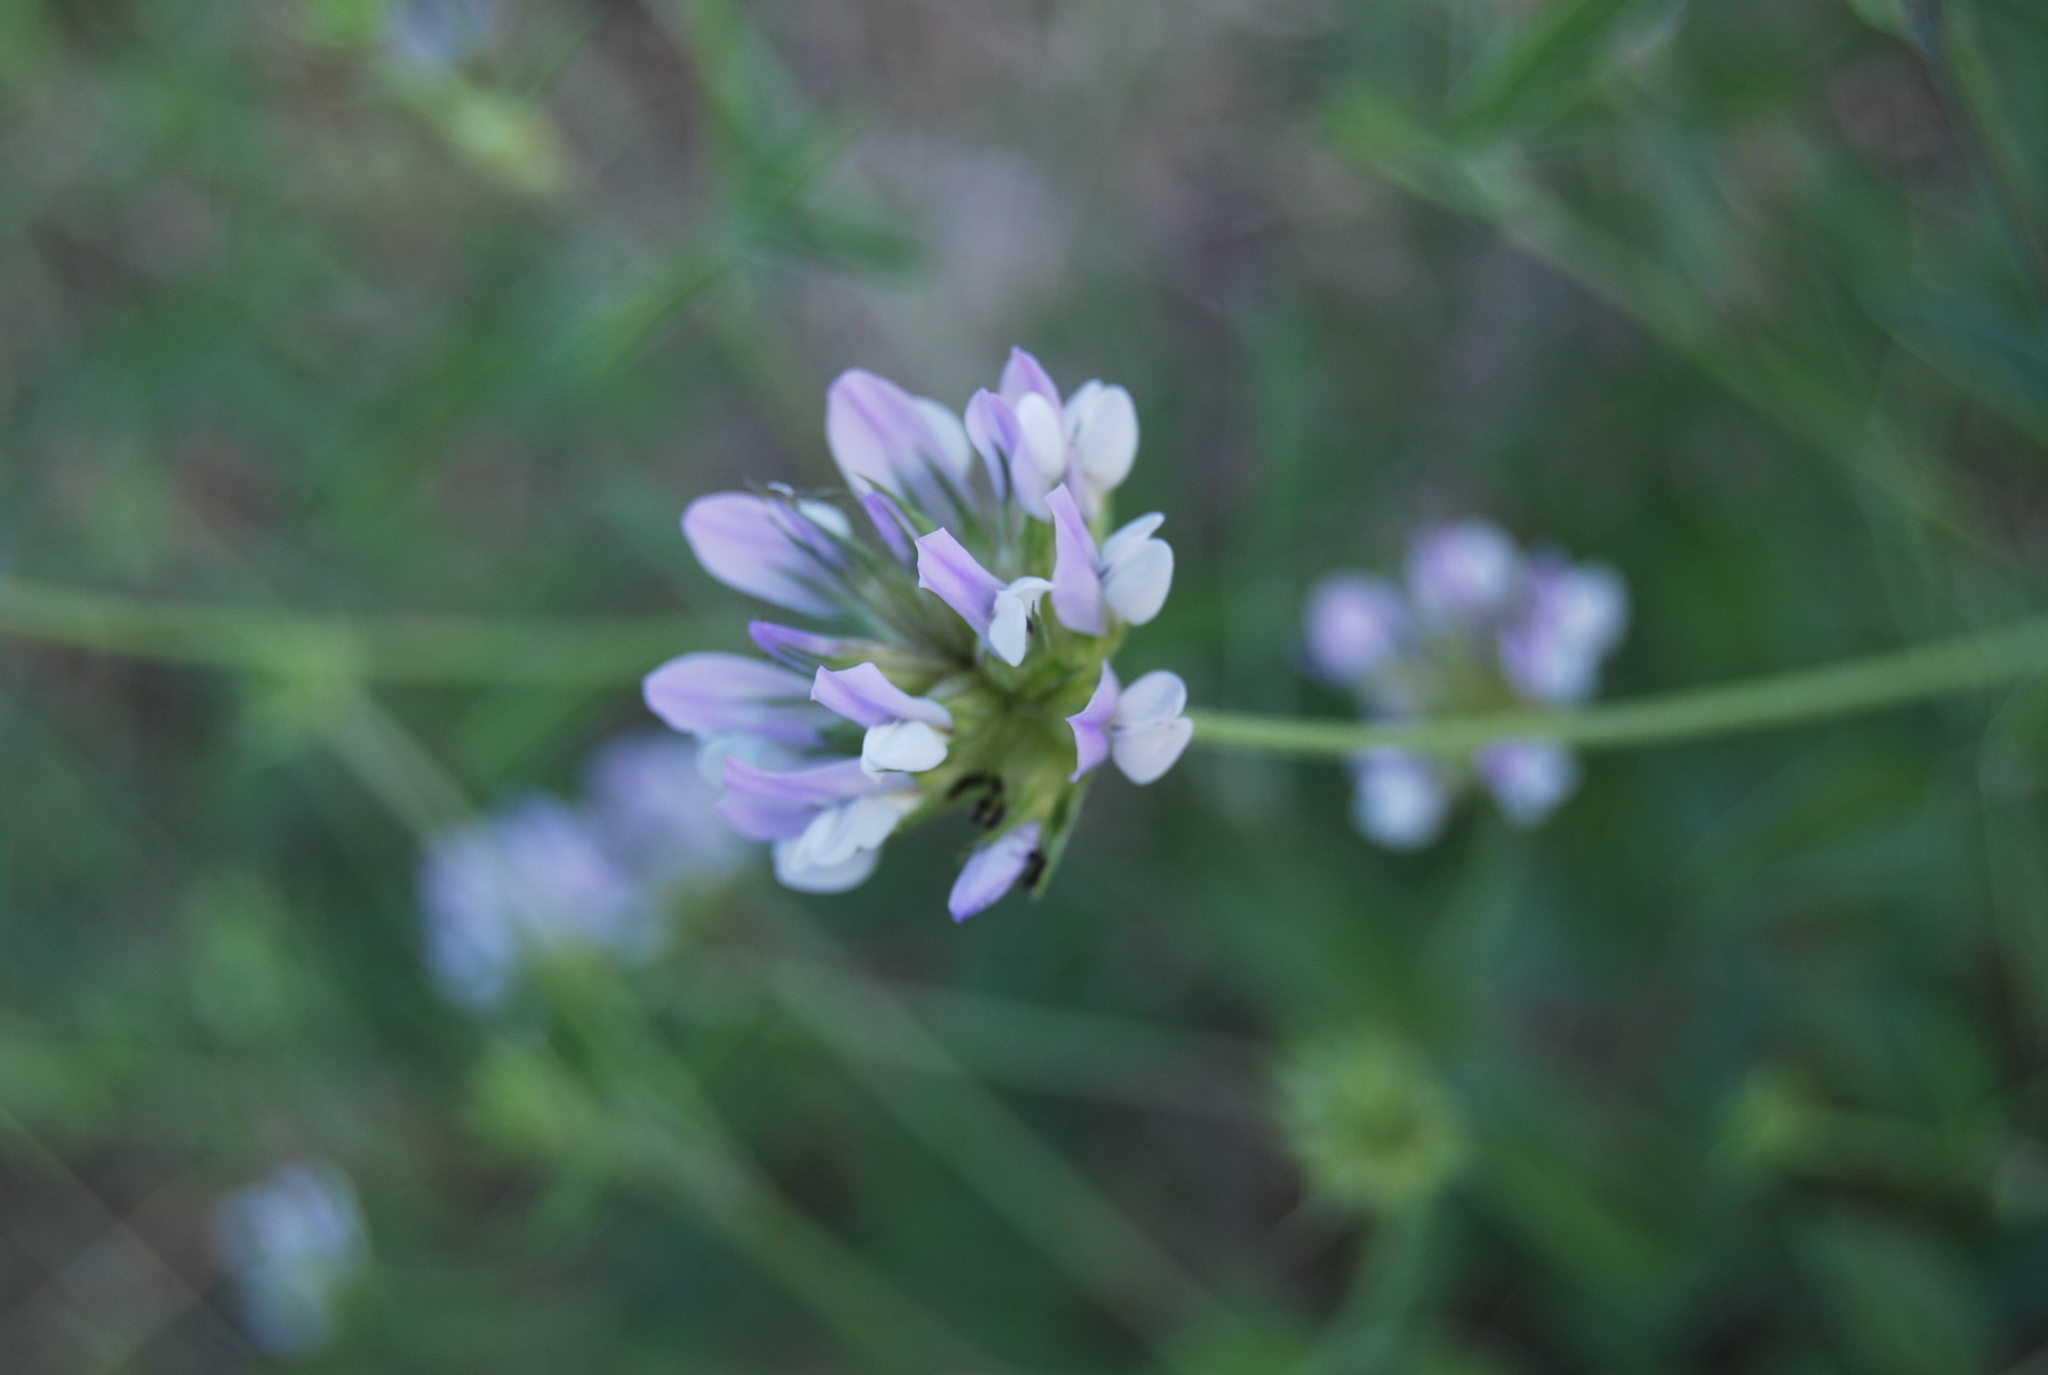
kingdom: Plantae
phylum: Tracheophyta
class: Magnoliopsida
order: Fabales
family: Fabaceae
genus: Bituminaria
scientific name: Bituminaria bituminosa
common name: Arabian pea
